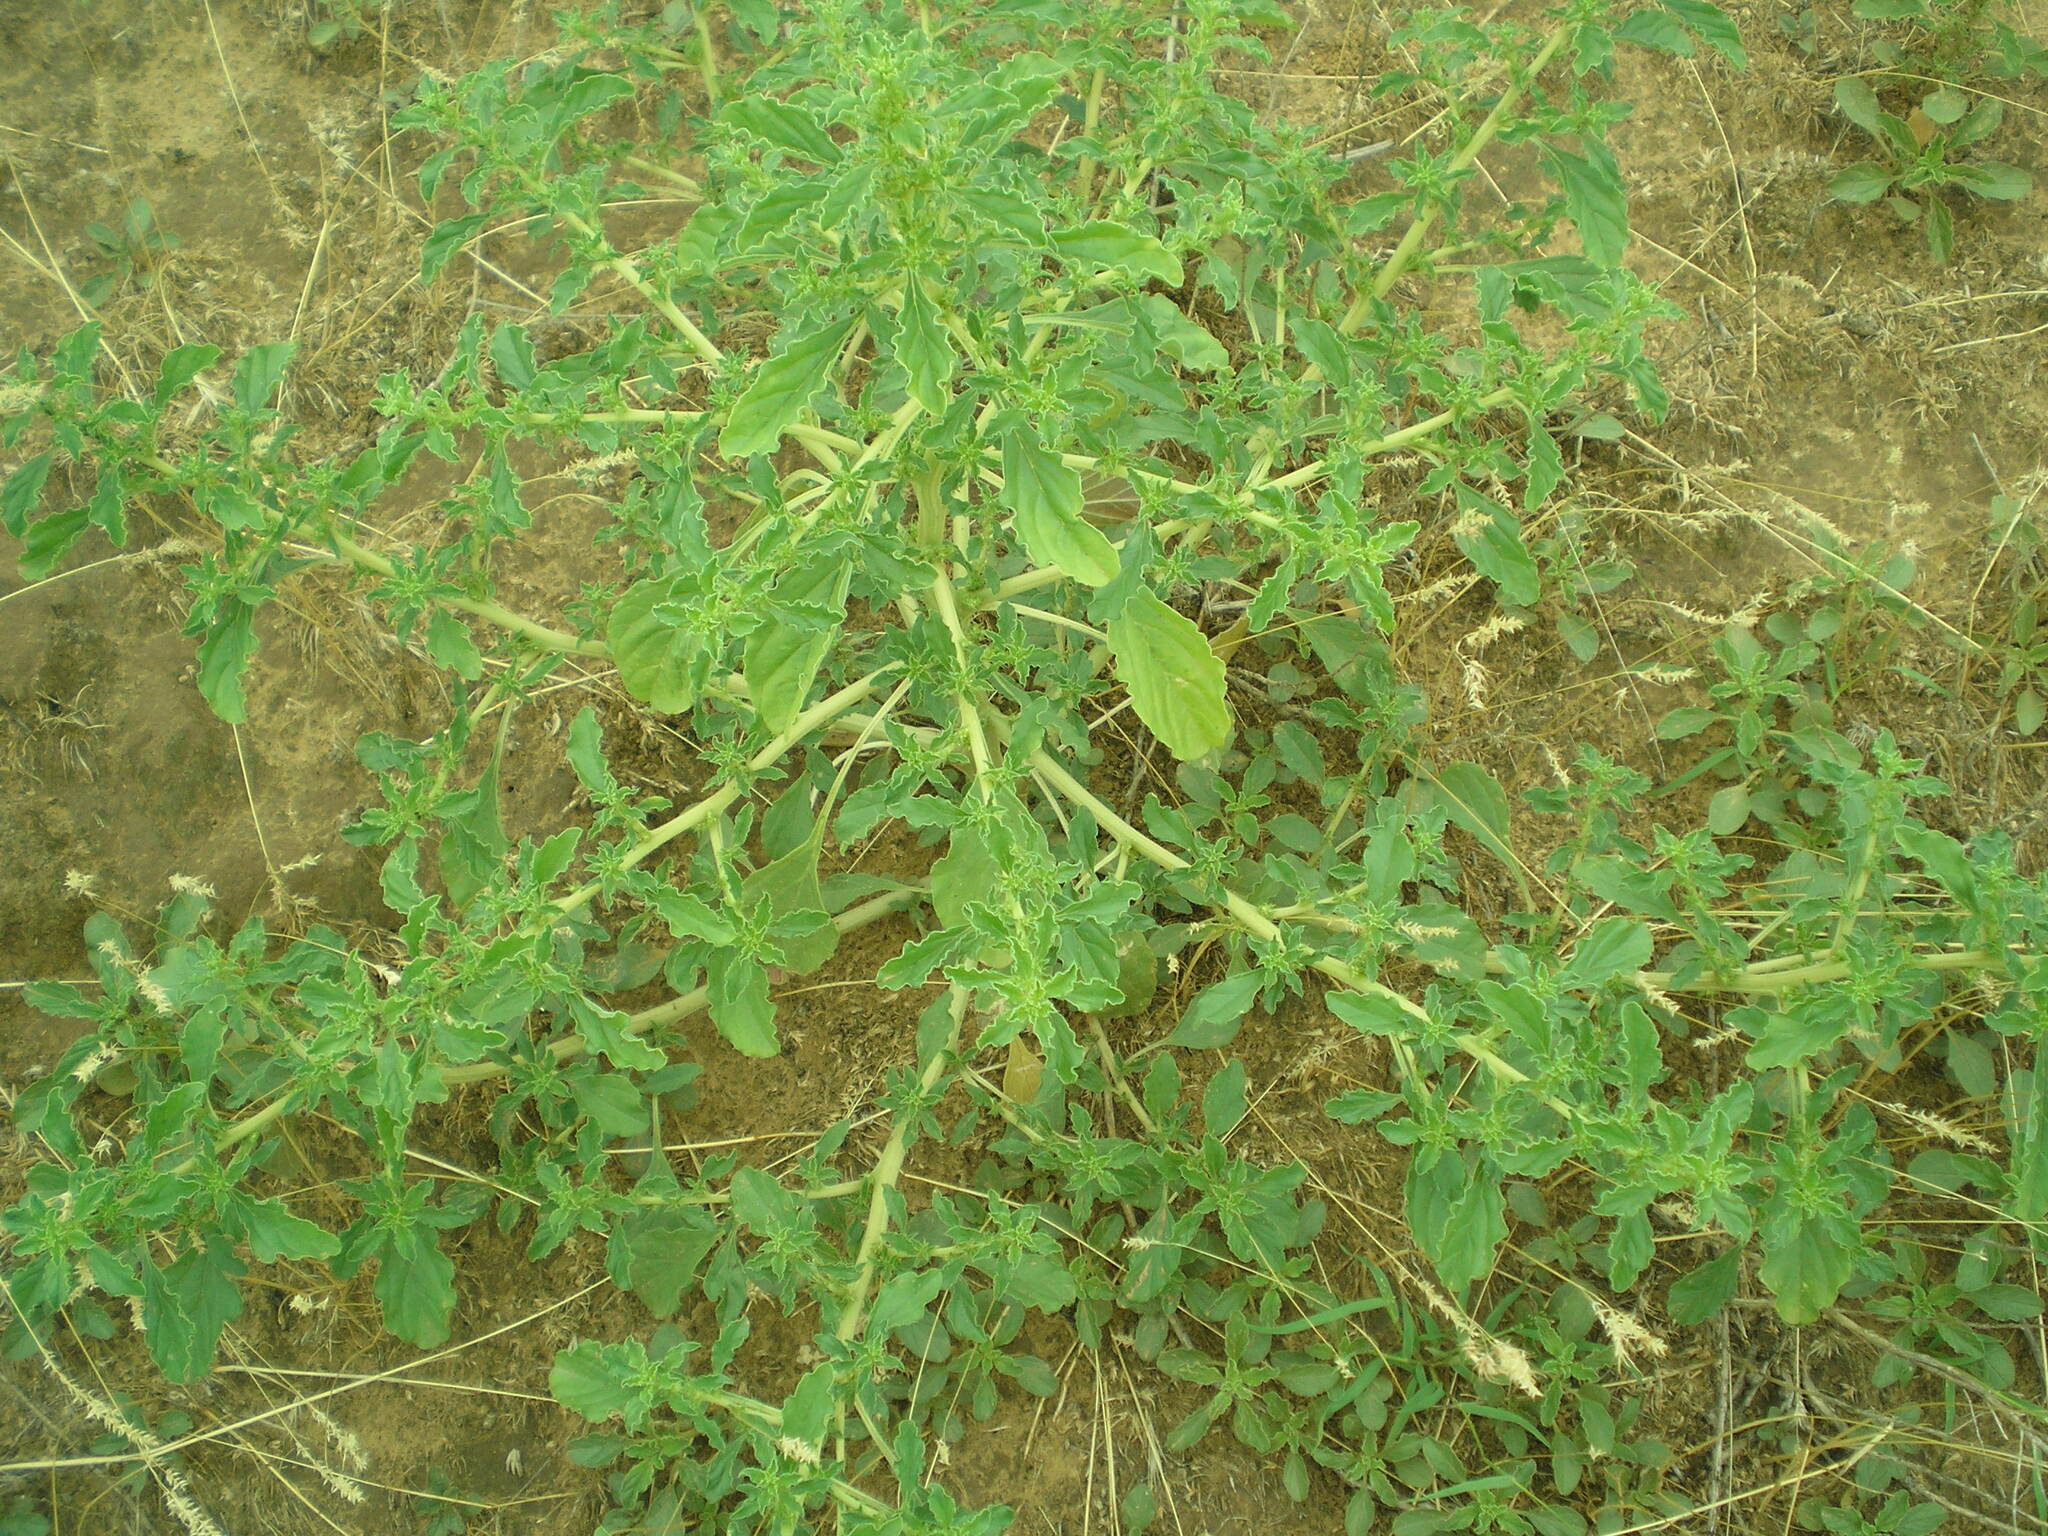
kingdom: Plantae
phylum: Tracheophyta
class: Magnoliopsida
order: Caryophyllales
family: Amaranthaceae
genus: Amaranthus
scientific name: Amaranthus albus
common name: White pigweed
